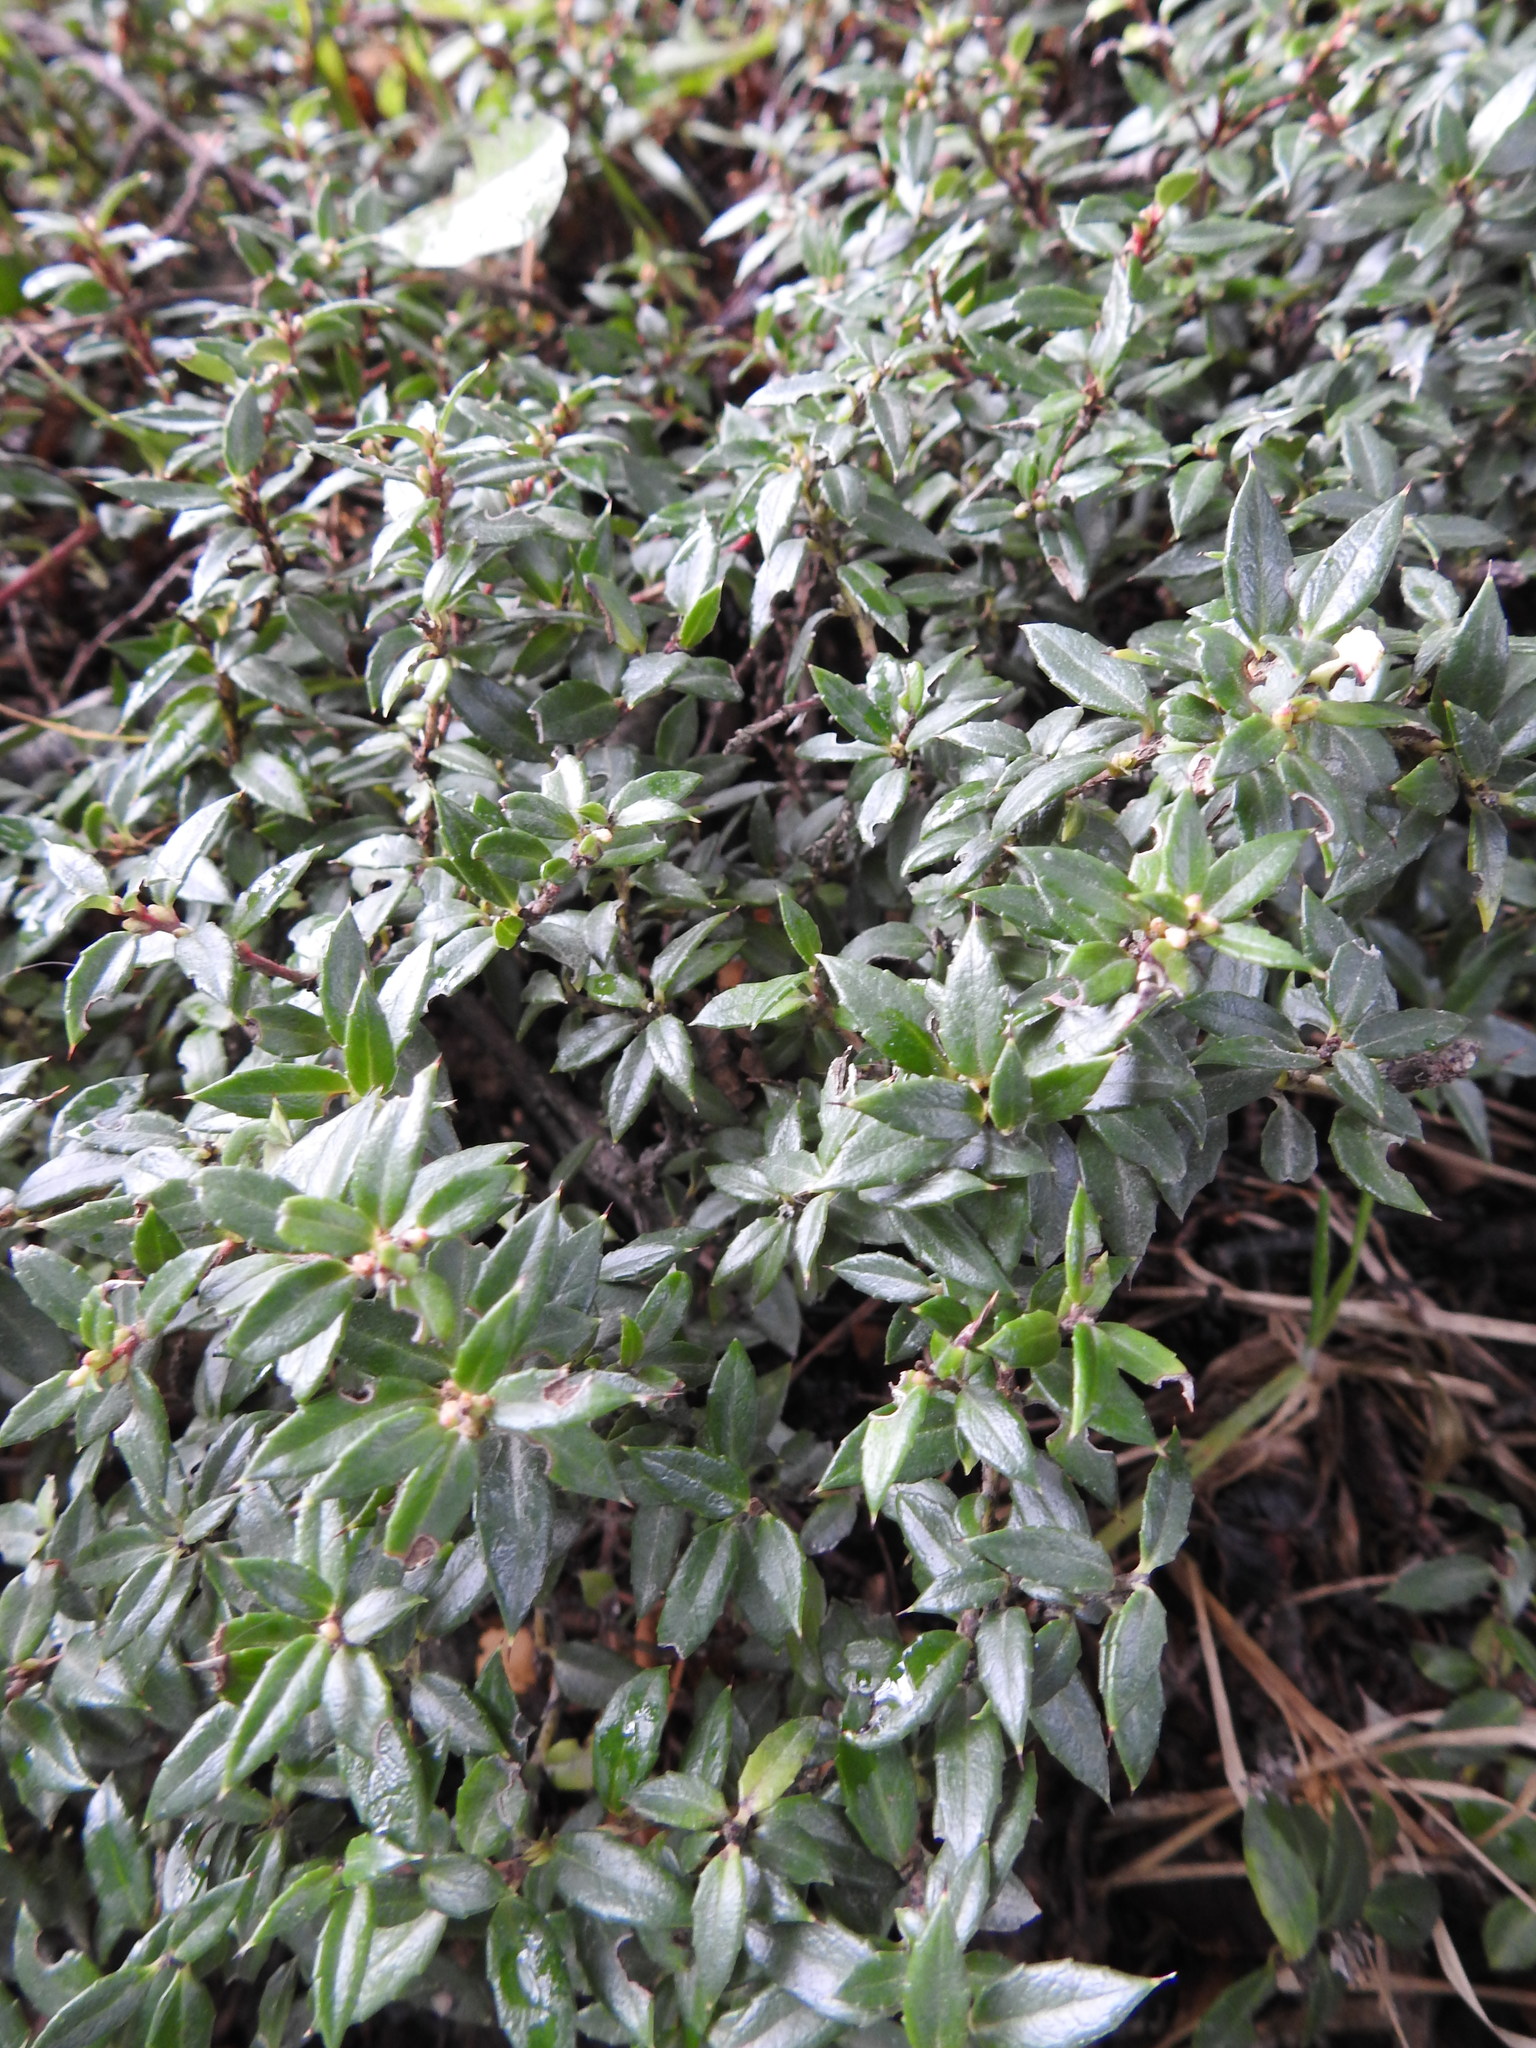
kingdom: Plantae
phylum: Tracheophyta
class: Magnoliopsida
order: Ericales
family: Ericaceae
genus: Gaultheria
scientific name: Gaultheria mucronata
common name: Prickly heath
